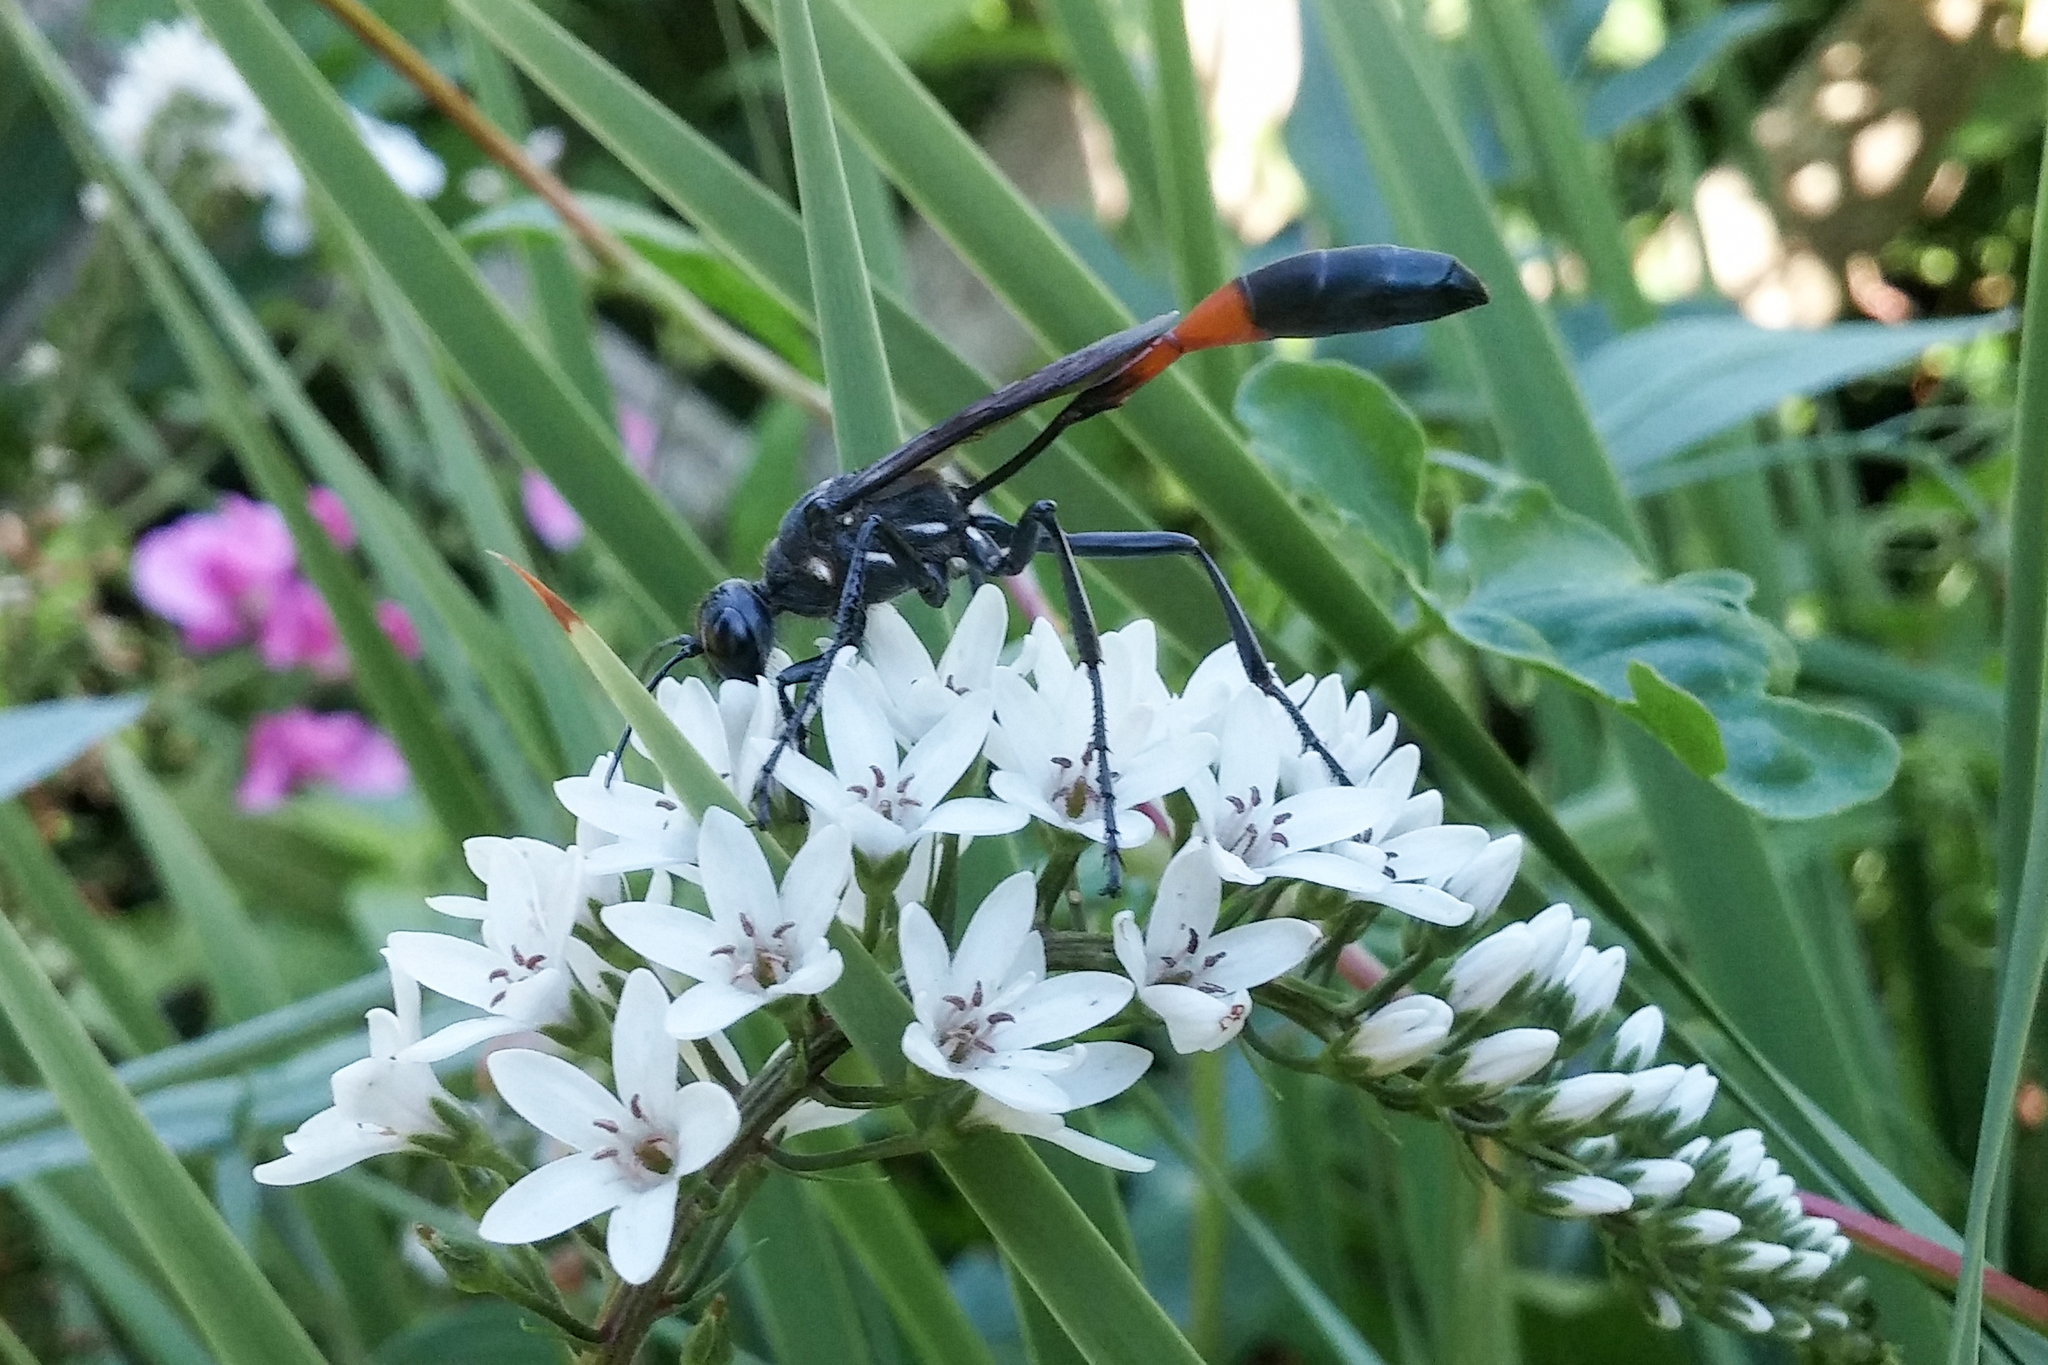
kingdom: Animalia
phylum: Arthropoda
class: Insecta
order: Hymenoptera
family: Sphecidae
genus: Ammophila
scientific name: Ammophila procera
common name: Common thread-waisted wasp
